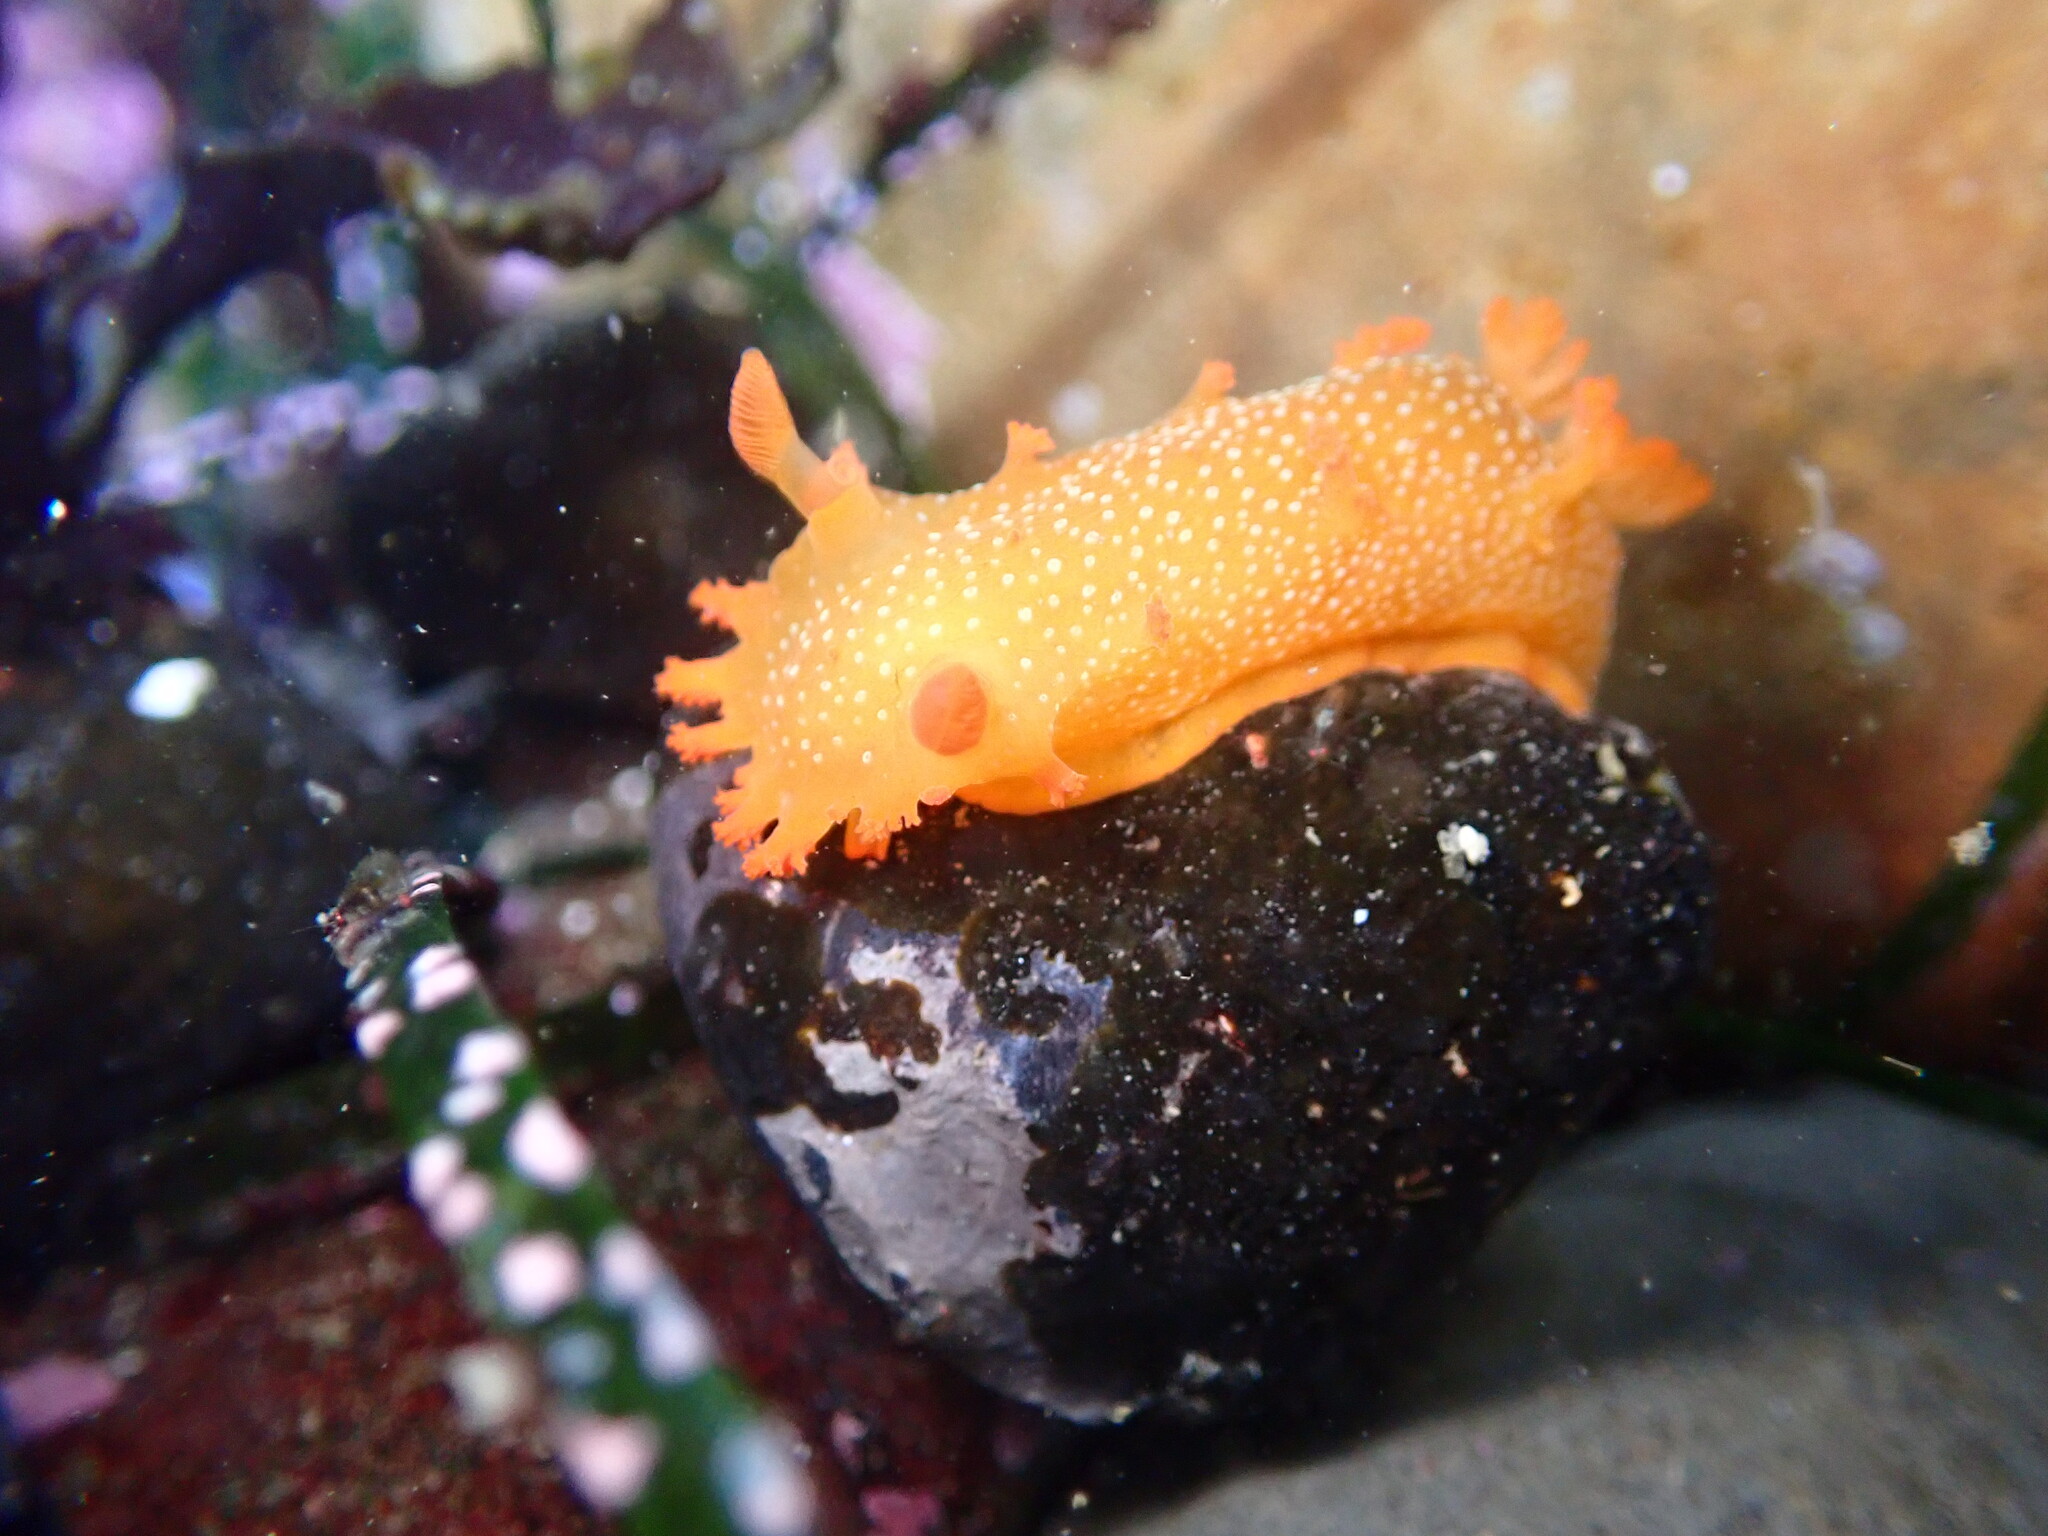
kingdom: Animalia
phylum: Mollusca
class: Gastropoda
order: Nudibranchia
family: Polyceridae
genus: Triopha
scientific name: Triopha maculata
